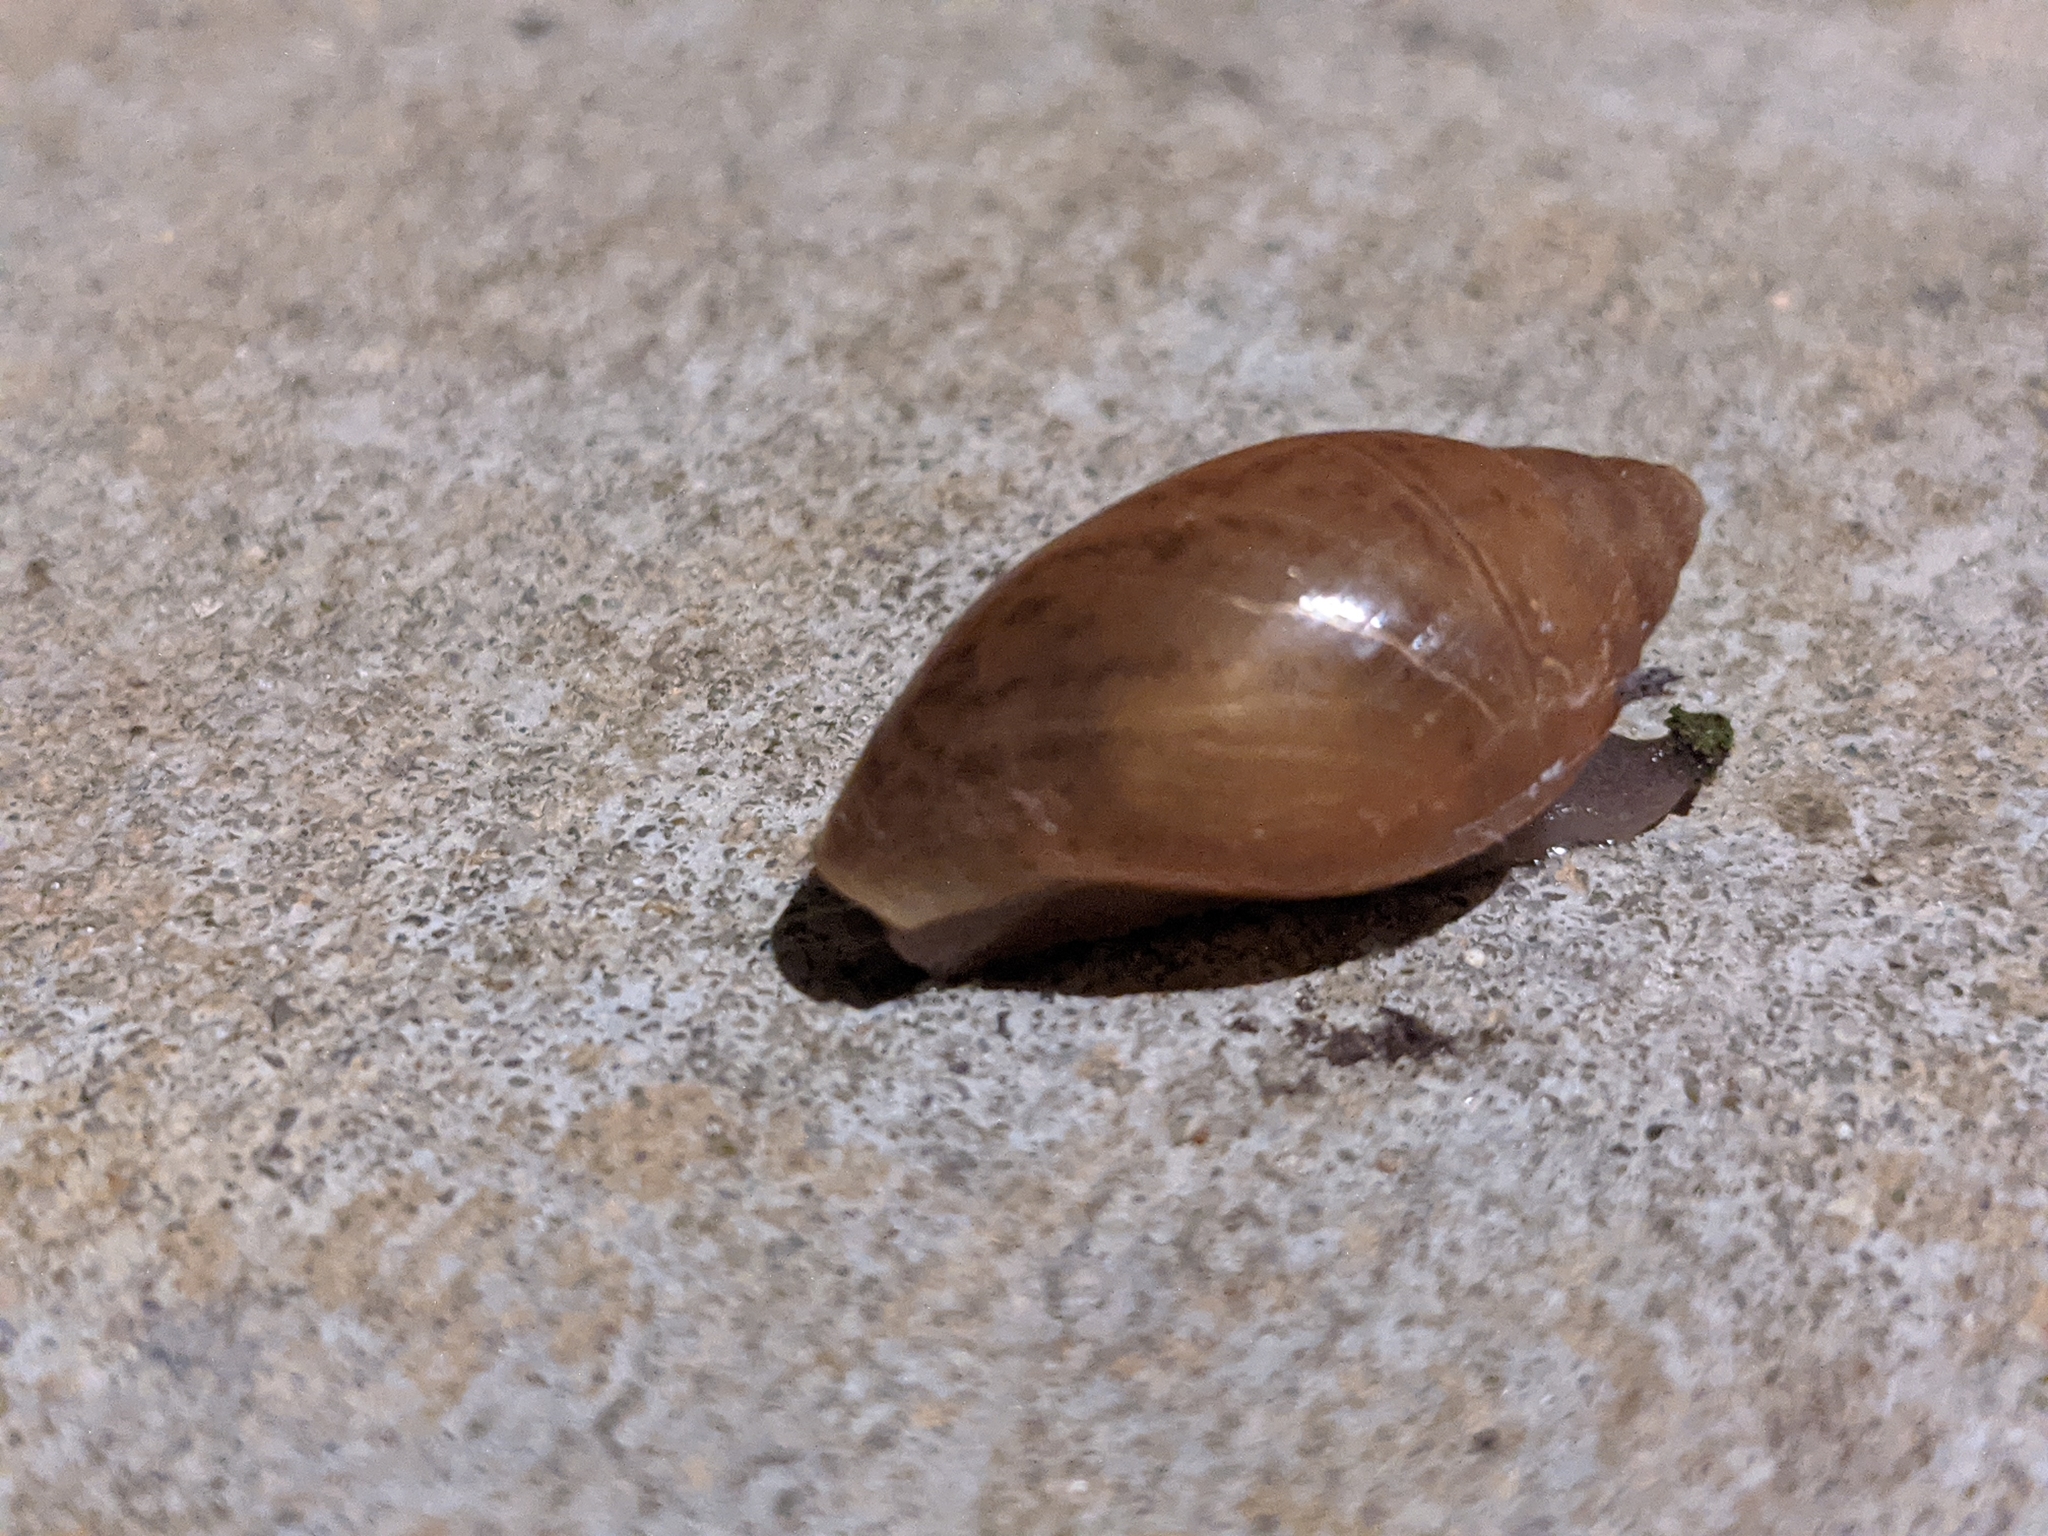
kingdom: Animalia
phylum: Mollusca
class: Gastropoda
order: Stylommatophora
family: Spiraxidae
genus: Euglandina
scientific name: Euglandina rosea
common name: Rosy wolfsnail
